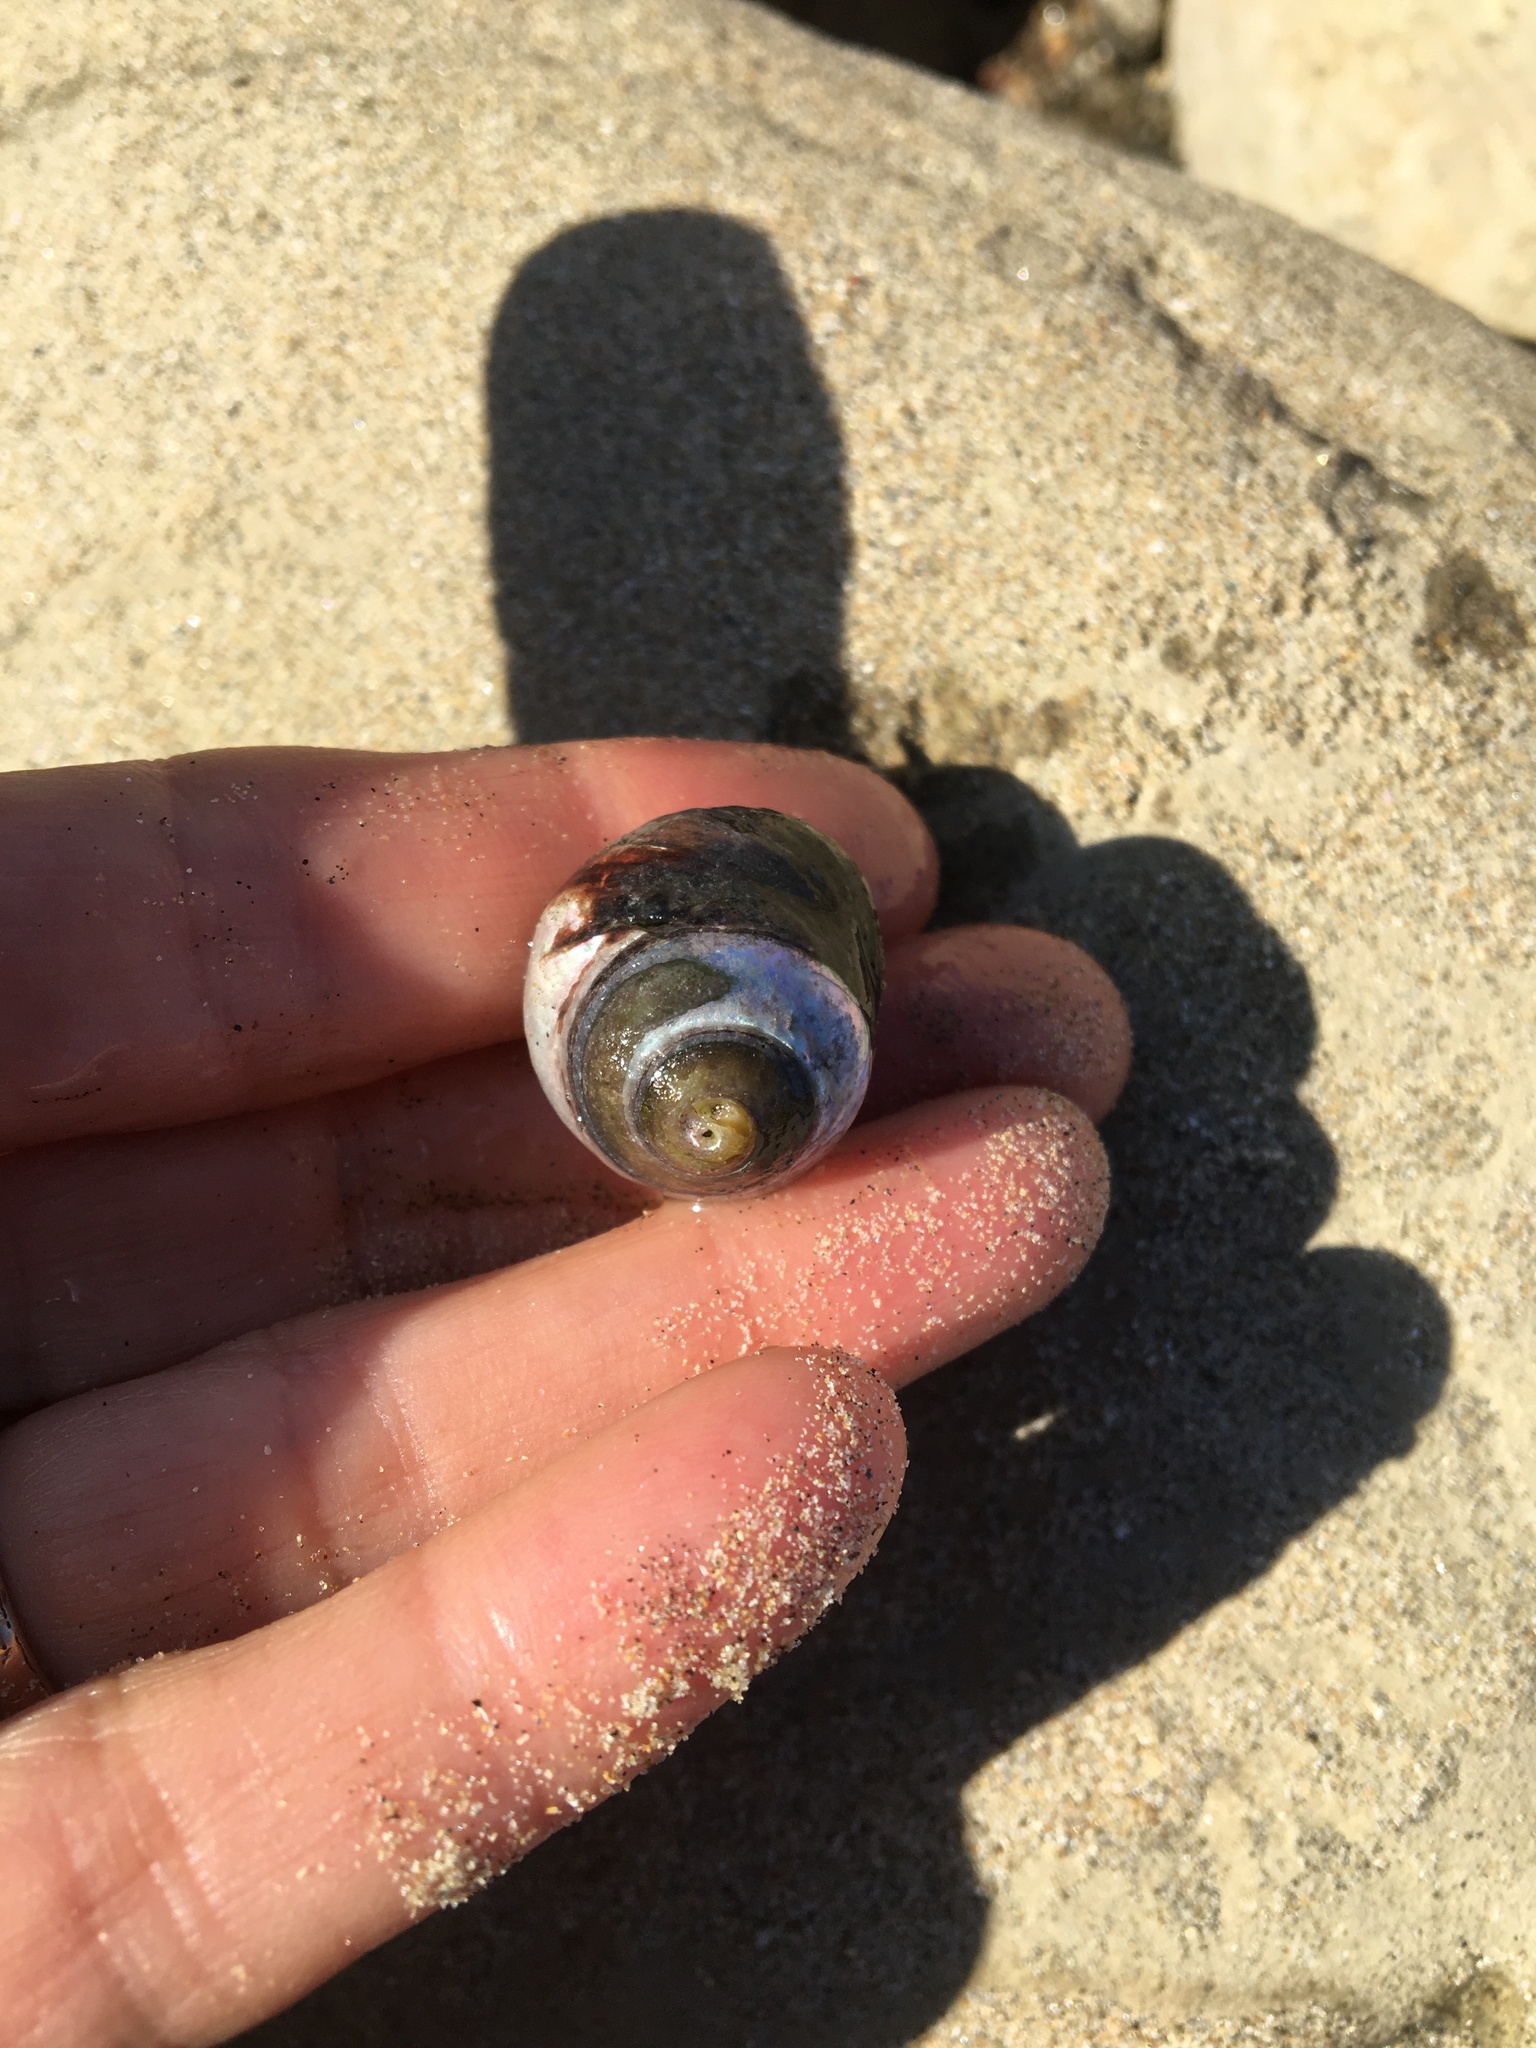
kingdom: Animalia
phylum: Mollusca
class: Gastropoda
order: Trochida
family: Tegulidae
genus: Tegula
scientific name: Tegula funebralis
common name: Black tegula
